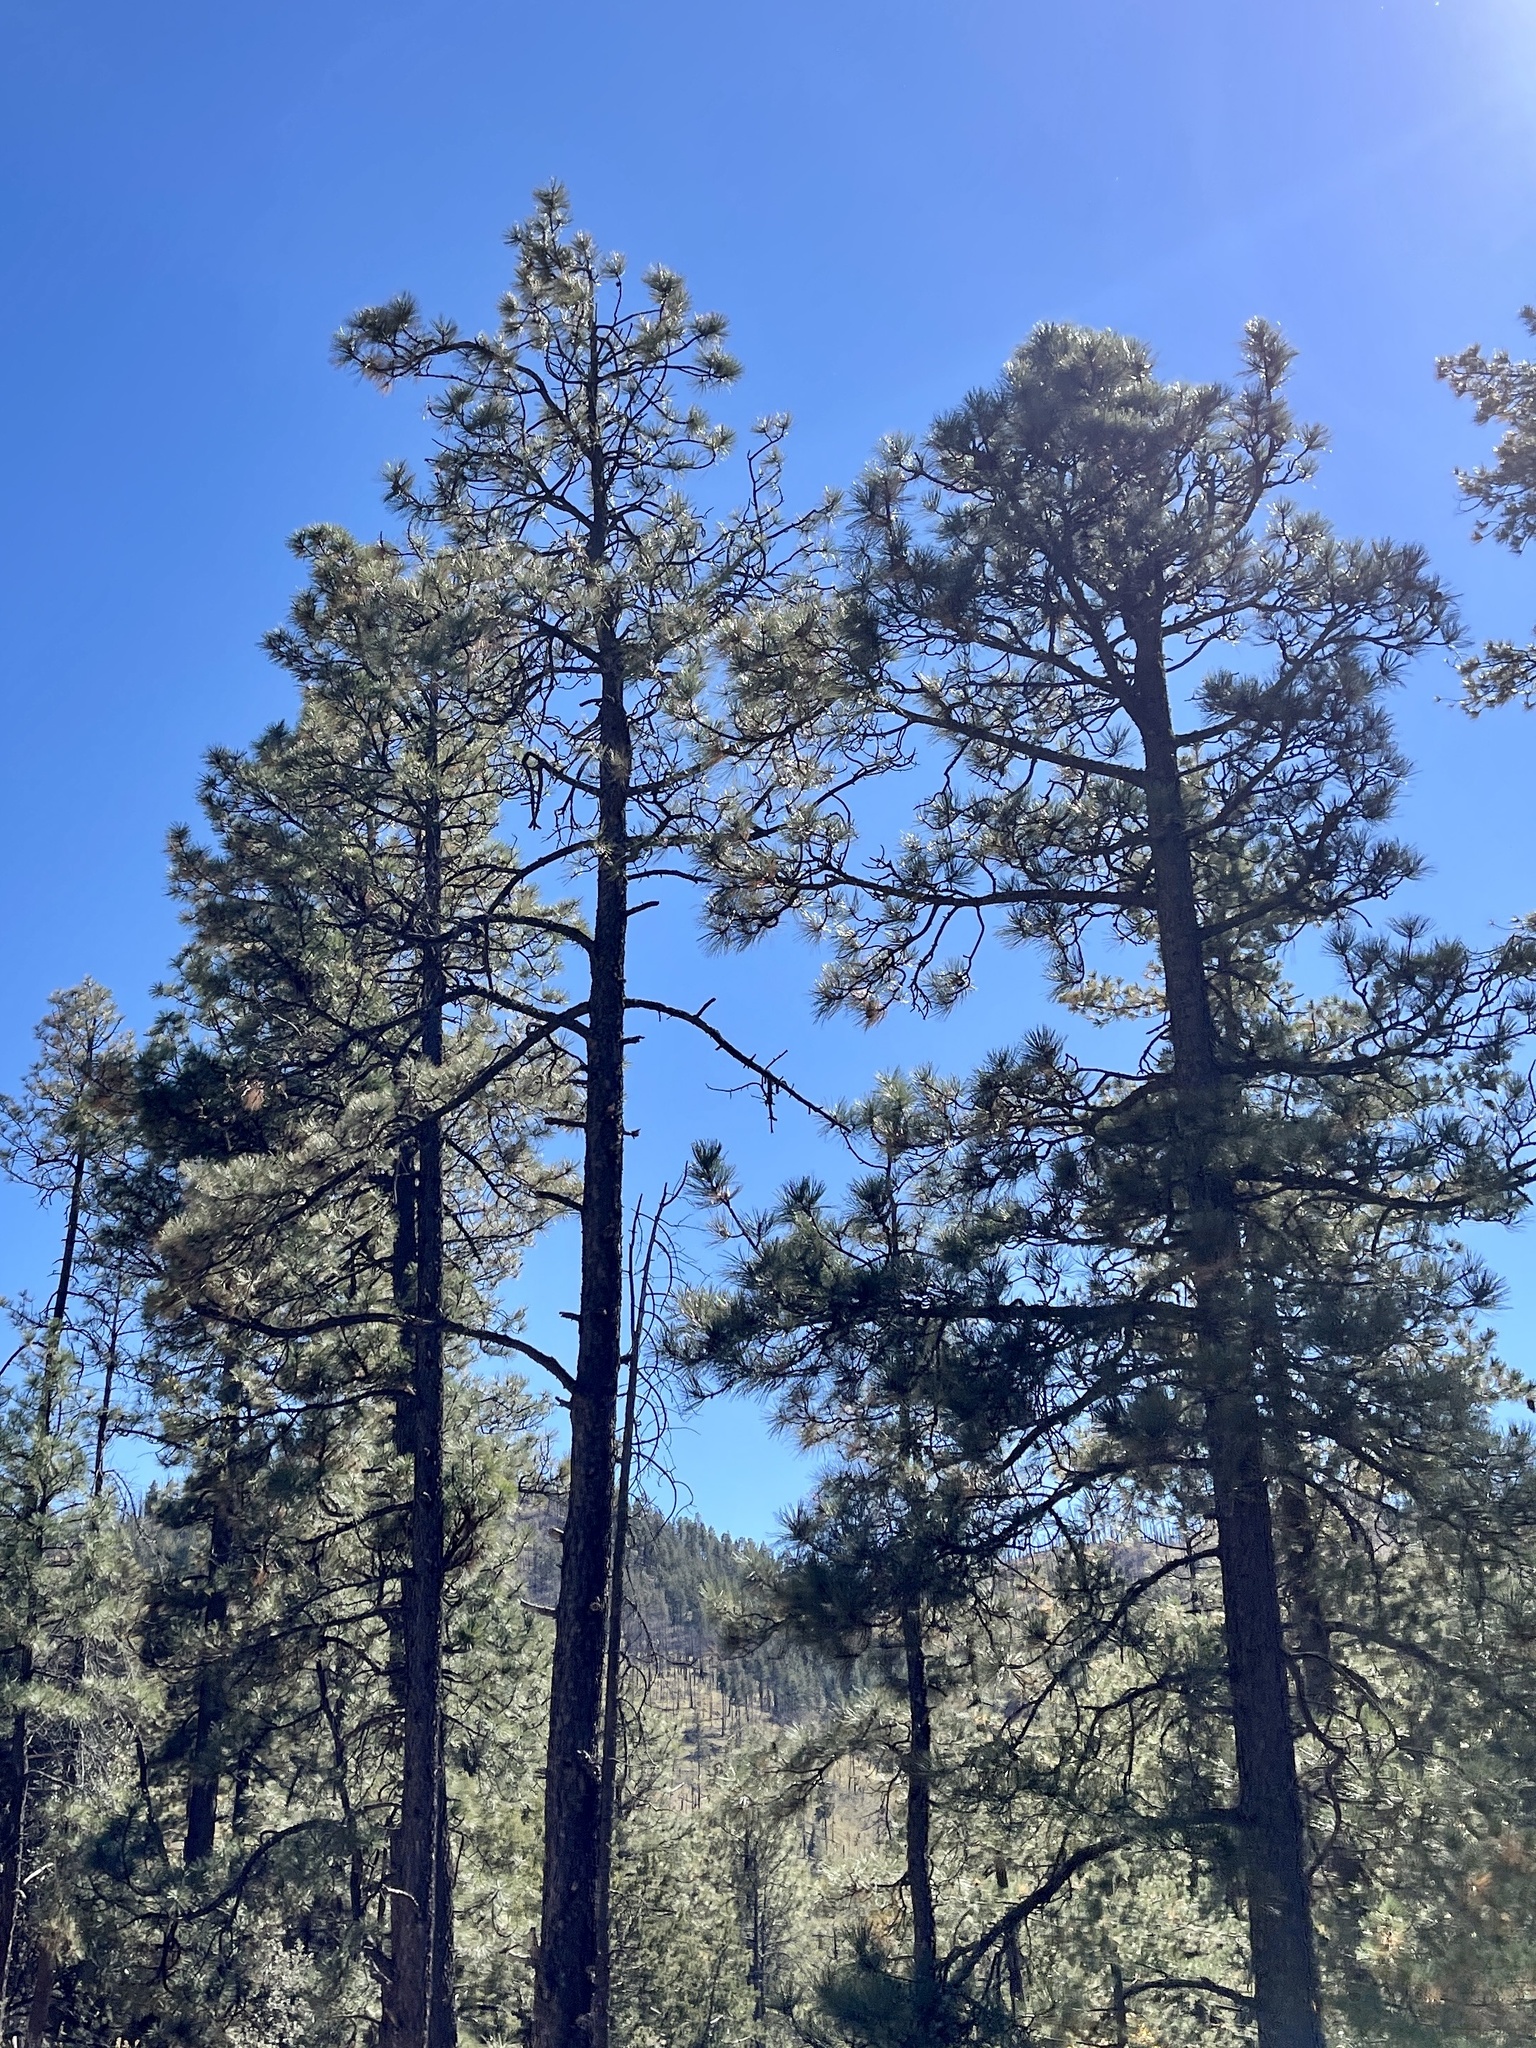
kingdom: Plantae
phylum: Tracheophyta
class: Pinopsida
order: Pinales
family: Pinaceae
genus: Pinus
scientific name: Pinus ponderosa
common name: Western yellow-pine
